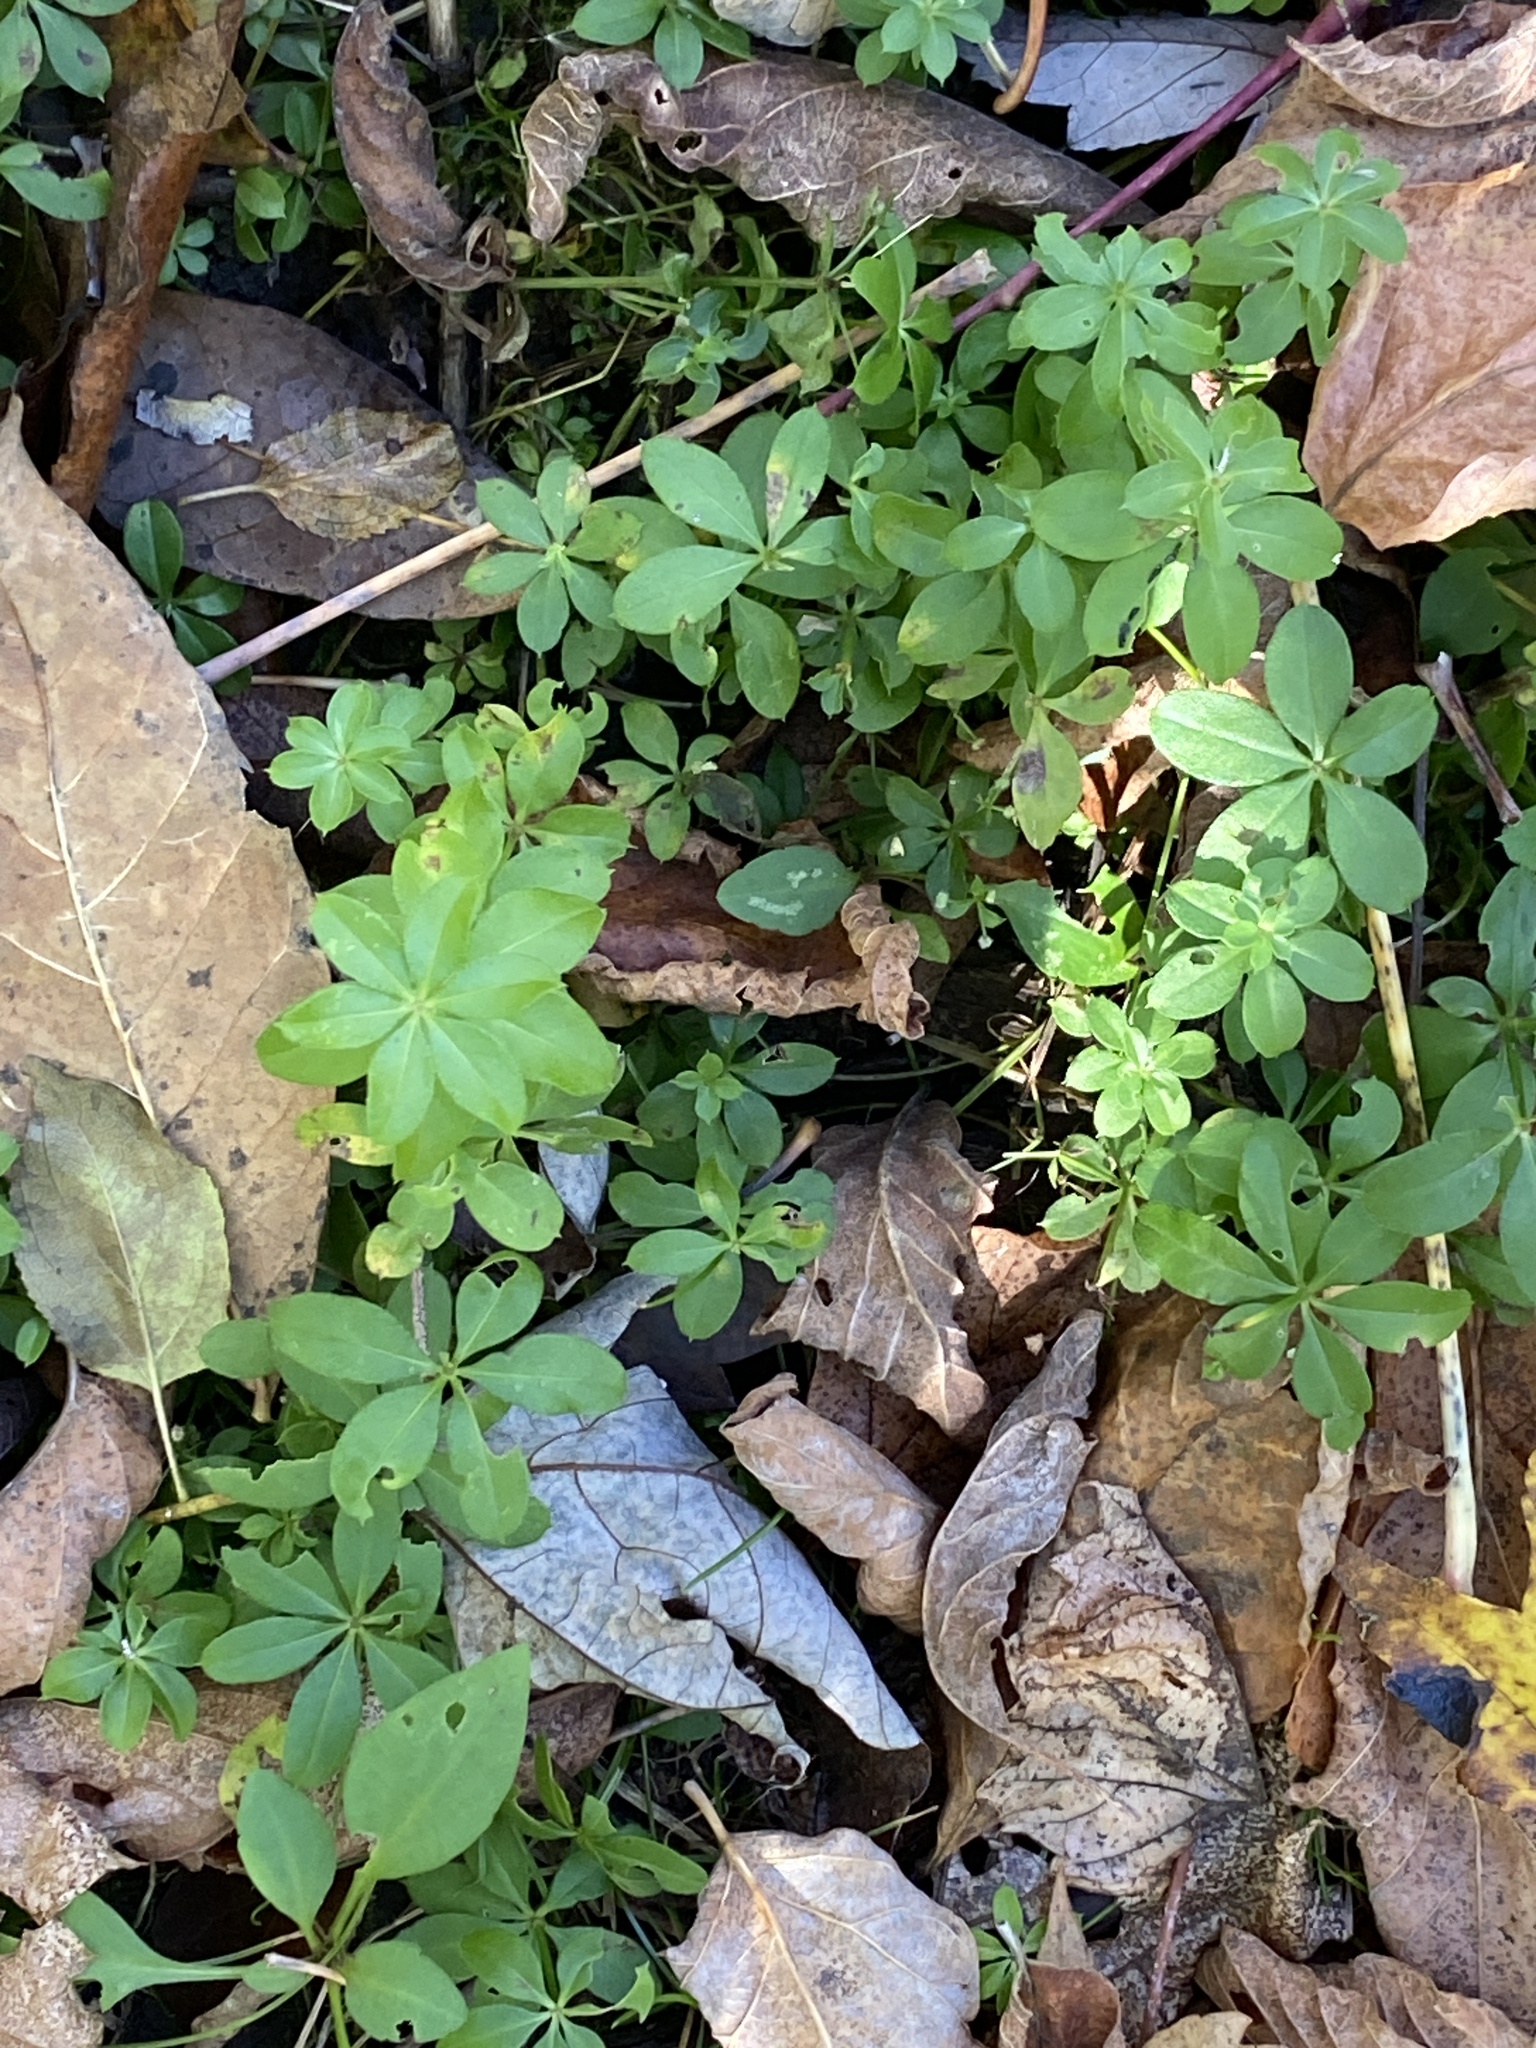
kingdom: Plantae
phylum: Tracheophyta
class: Magnoliopsida
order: Gentianales
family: Rubiaceae
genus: Galium
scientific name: Galium triflorum
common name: Fragrant bedstraw
